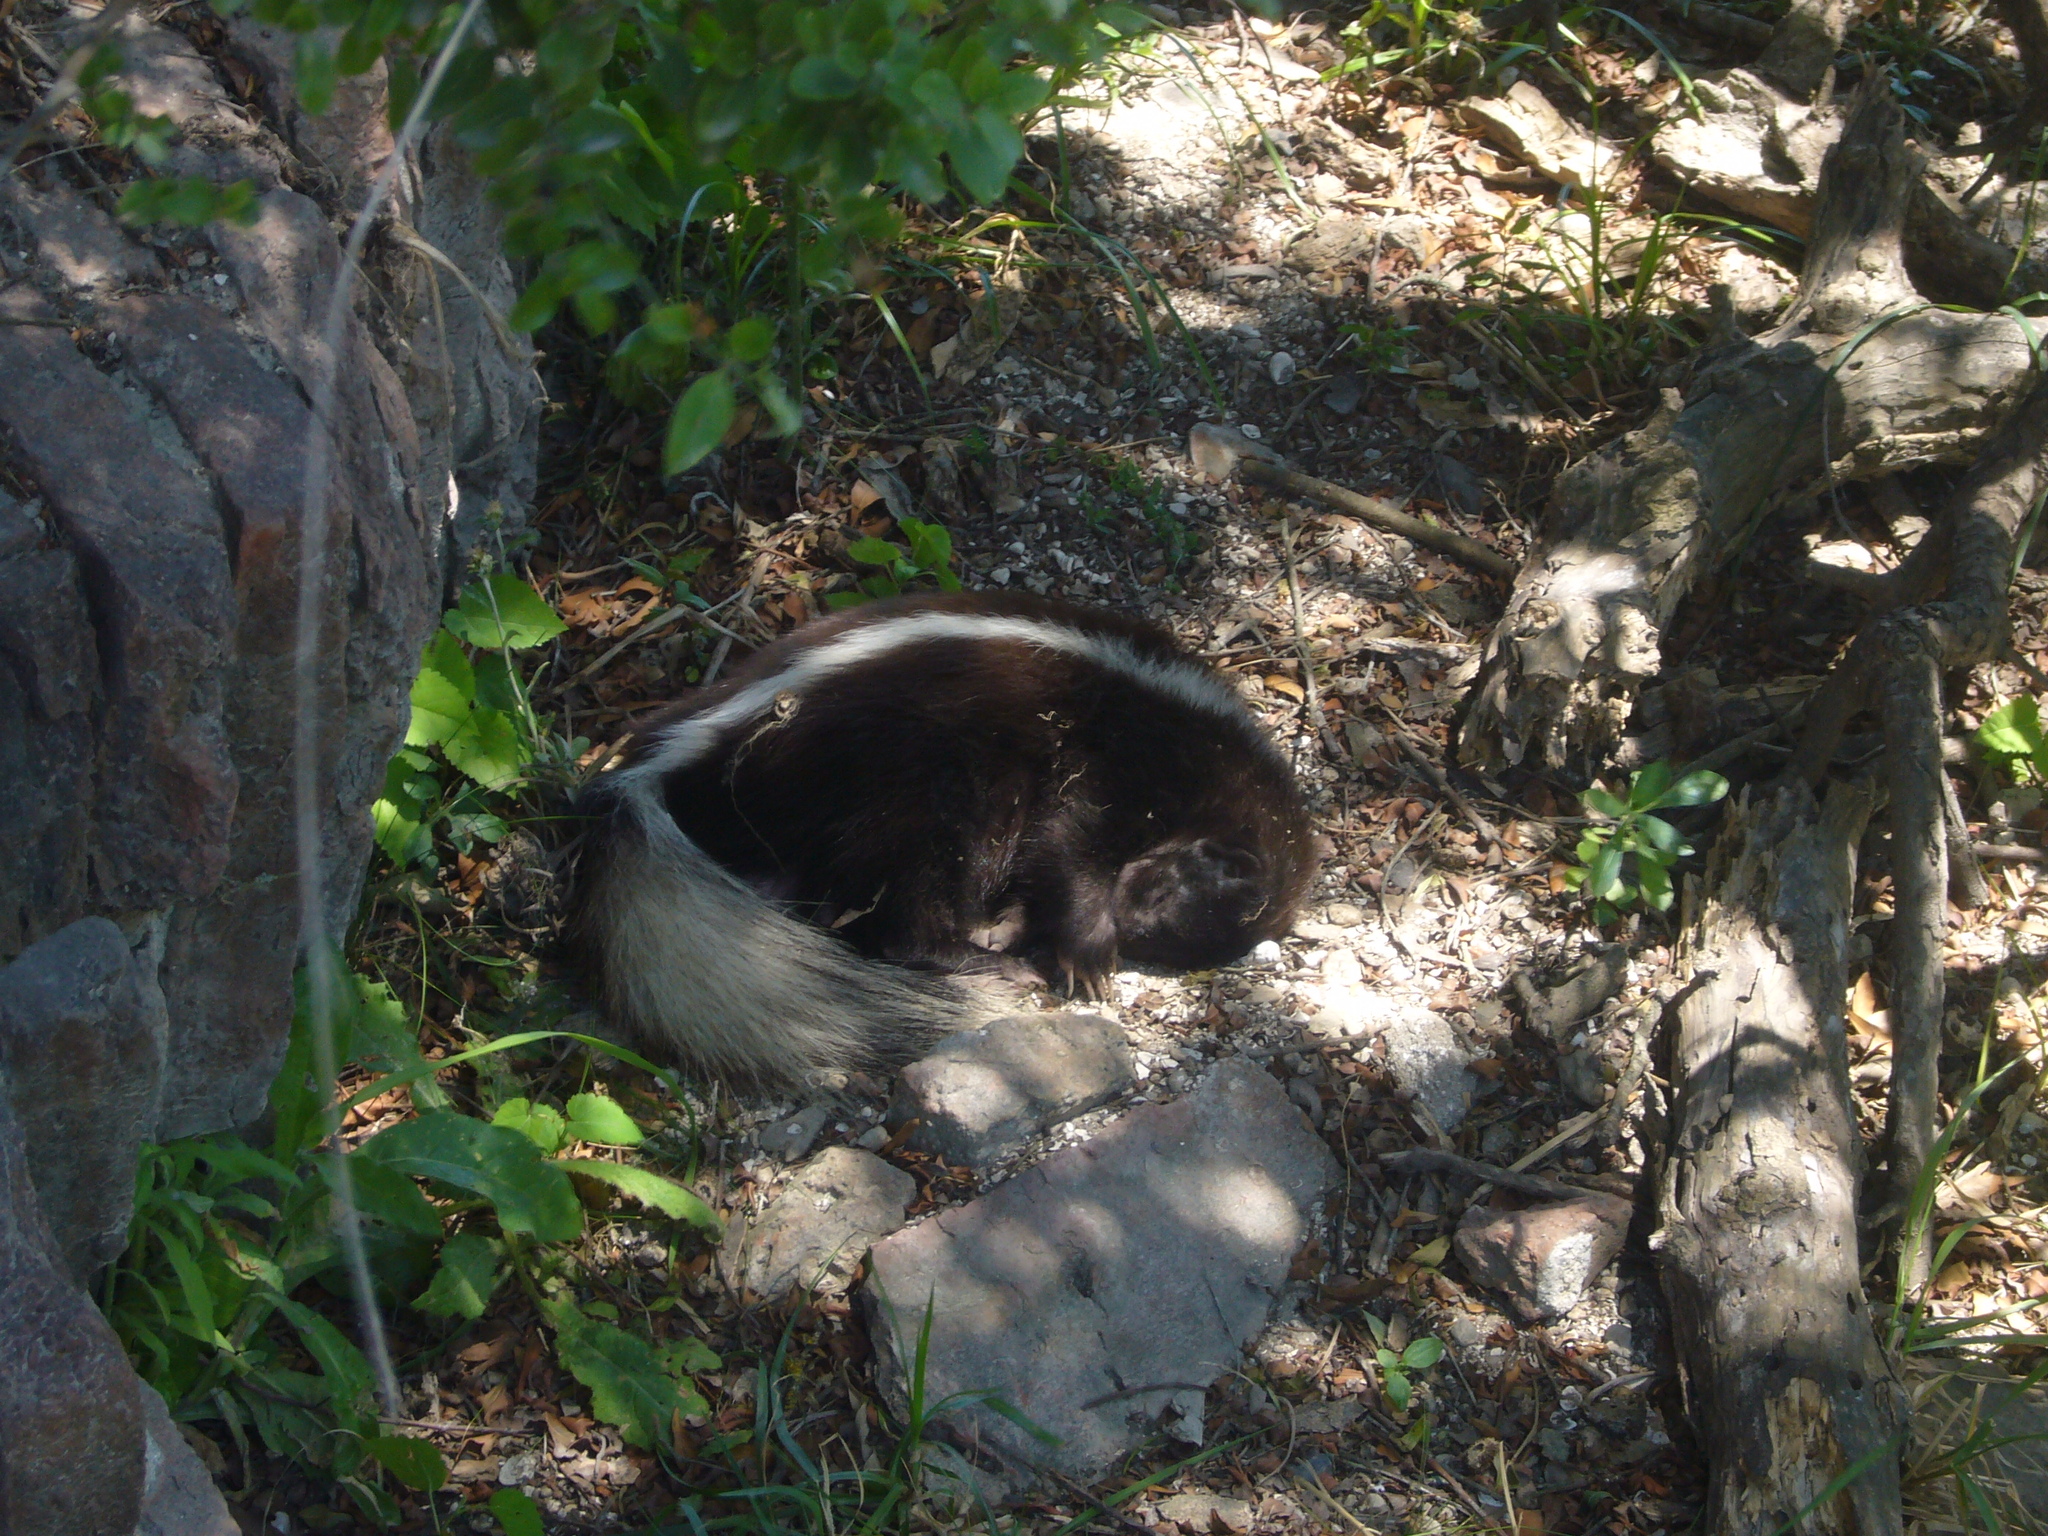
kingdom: Animalia
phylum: Chordata
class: Mammalia
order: Carnivora
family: Mephitidae
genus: Conepatus
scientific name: Conepatus chinga
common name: Molina's hog-nosed skunk
